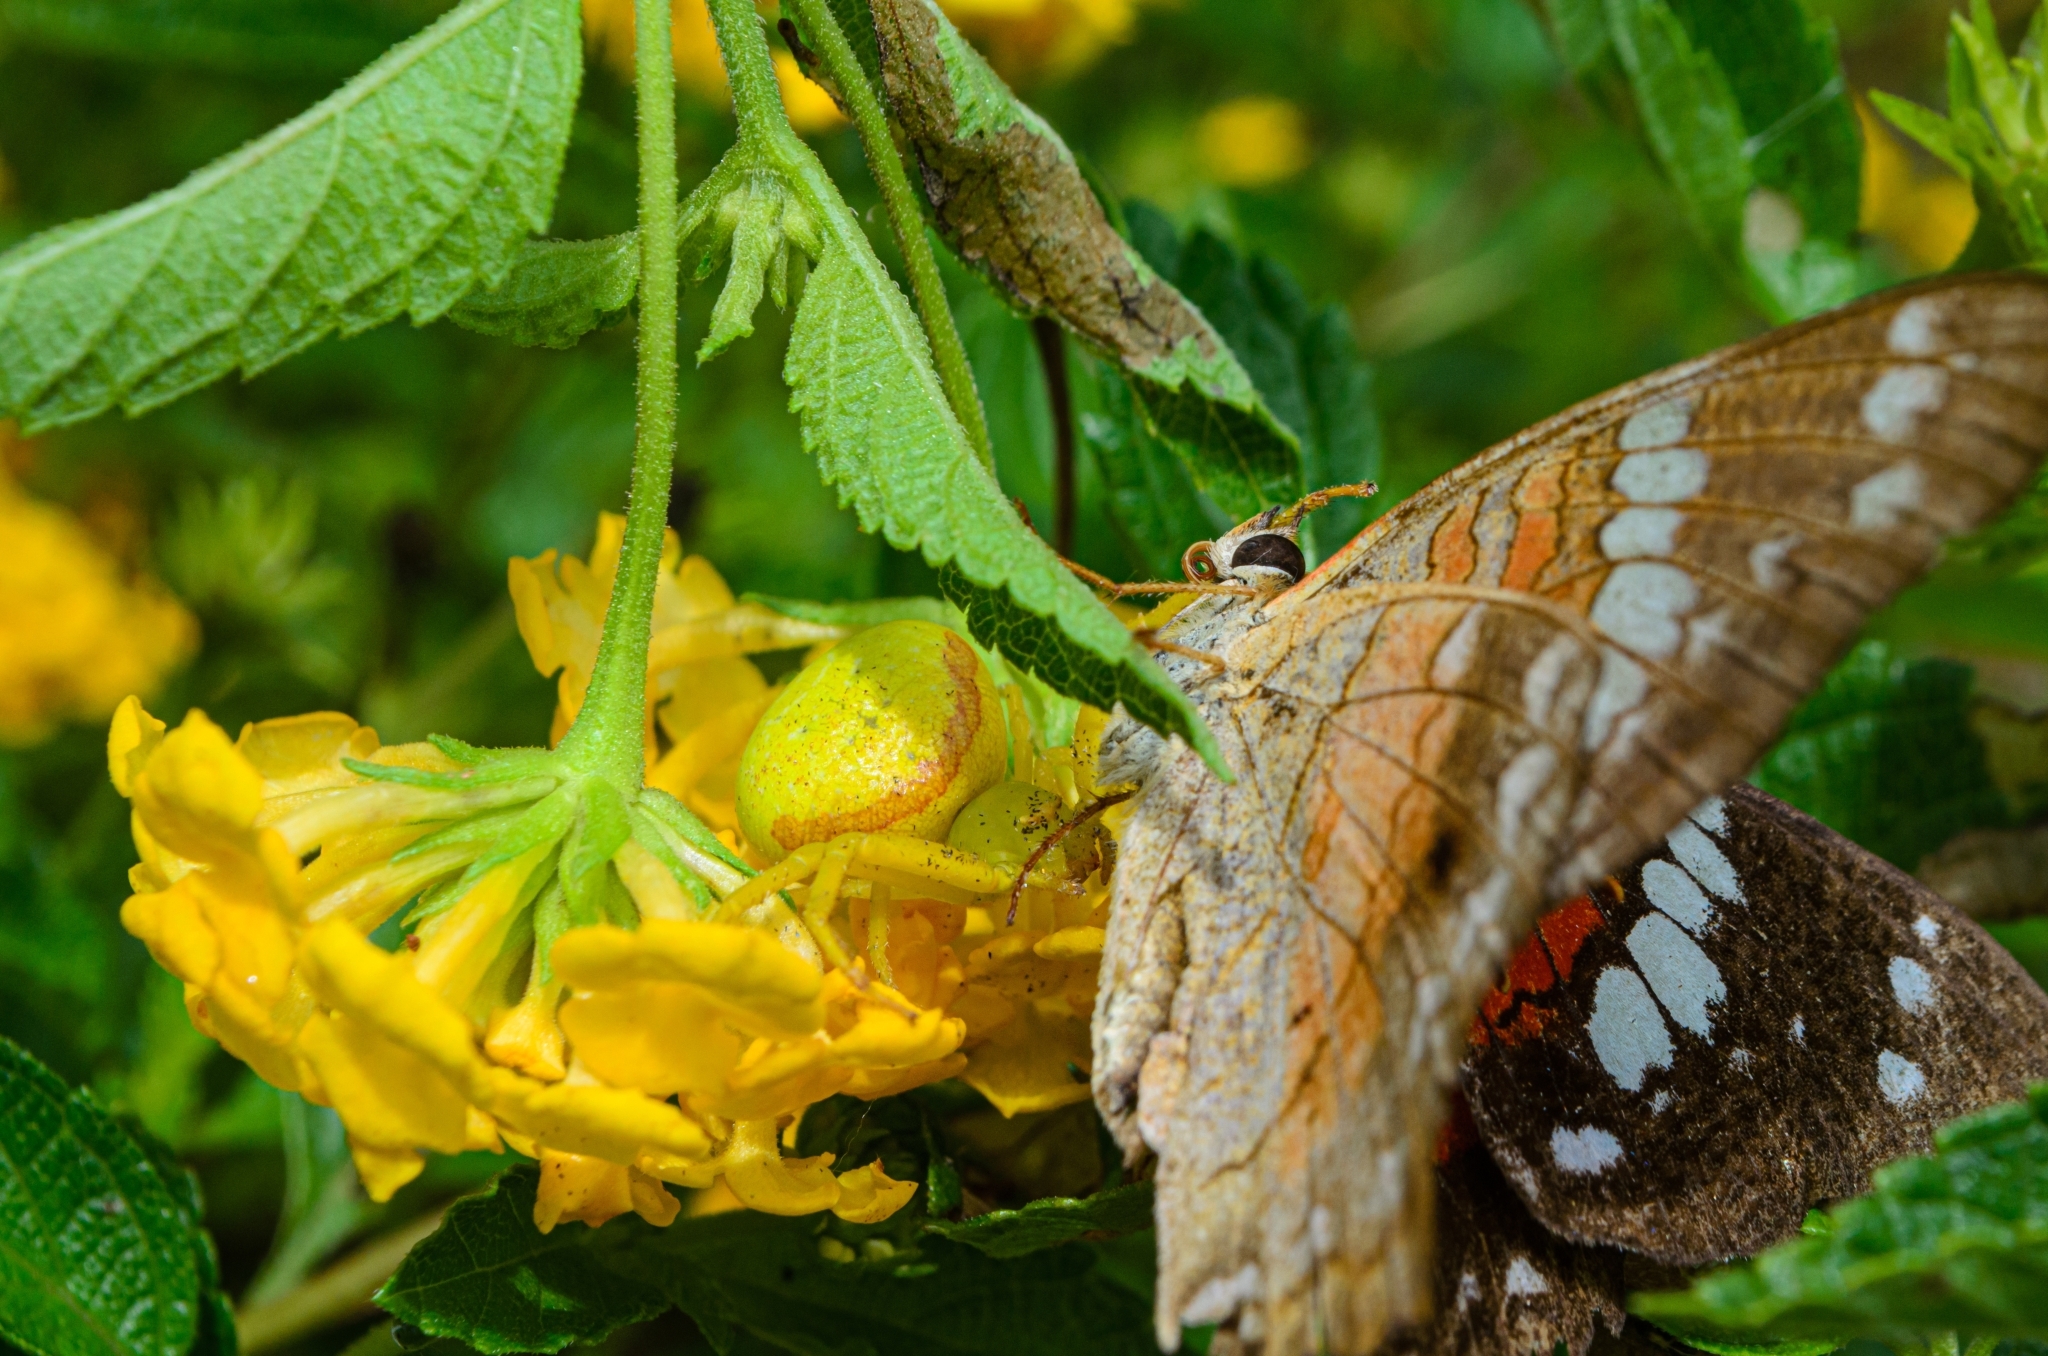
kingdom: Animalia
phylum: Arthropoda
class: Insecta
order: Lepidoptera
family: Nymphalidae
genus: Anartia
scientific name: Anartia amathea
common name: Red peacock
